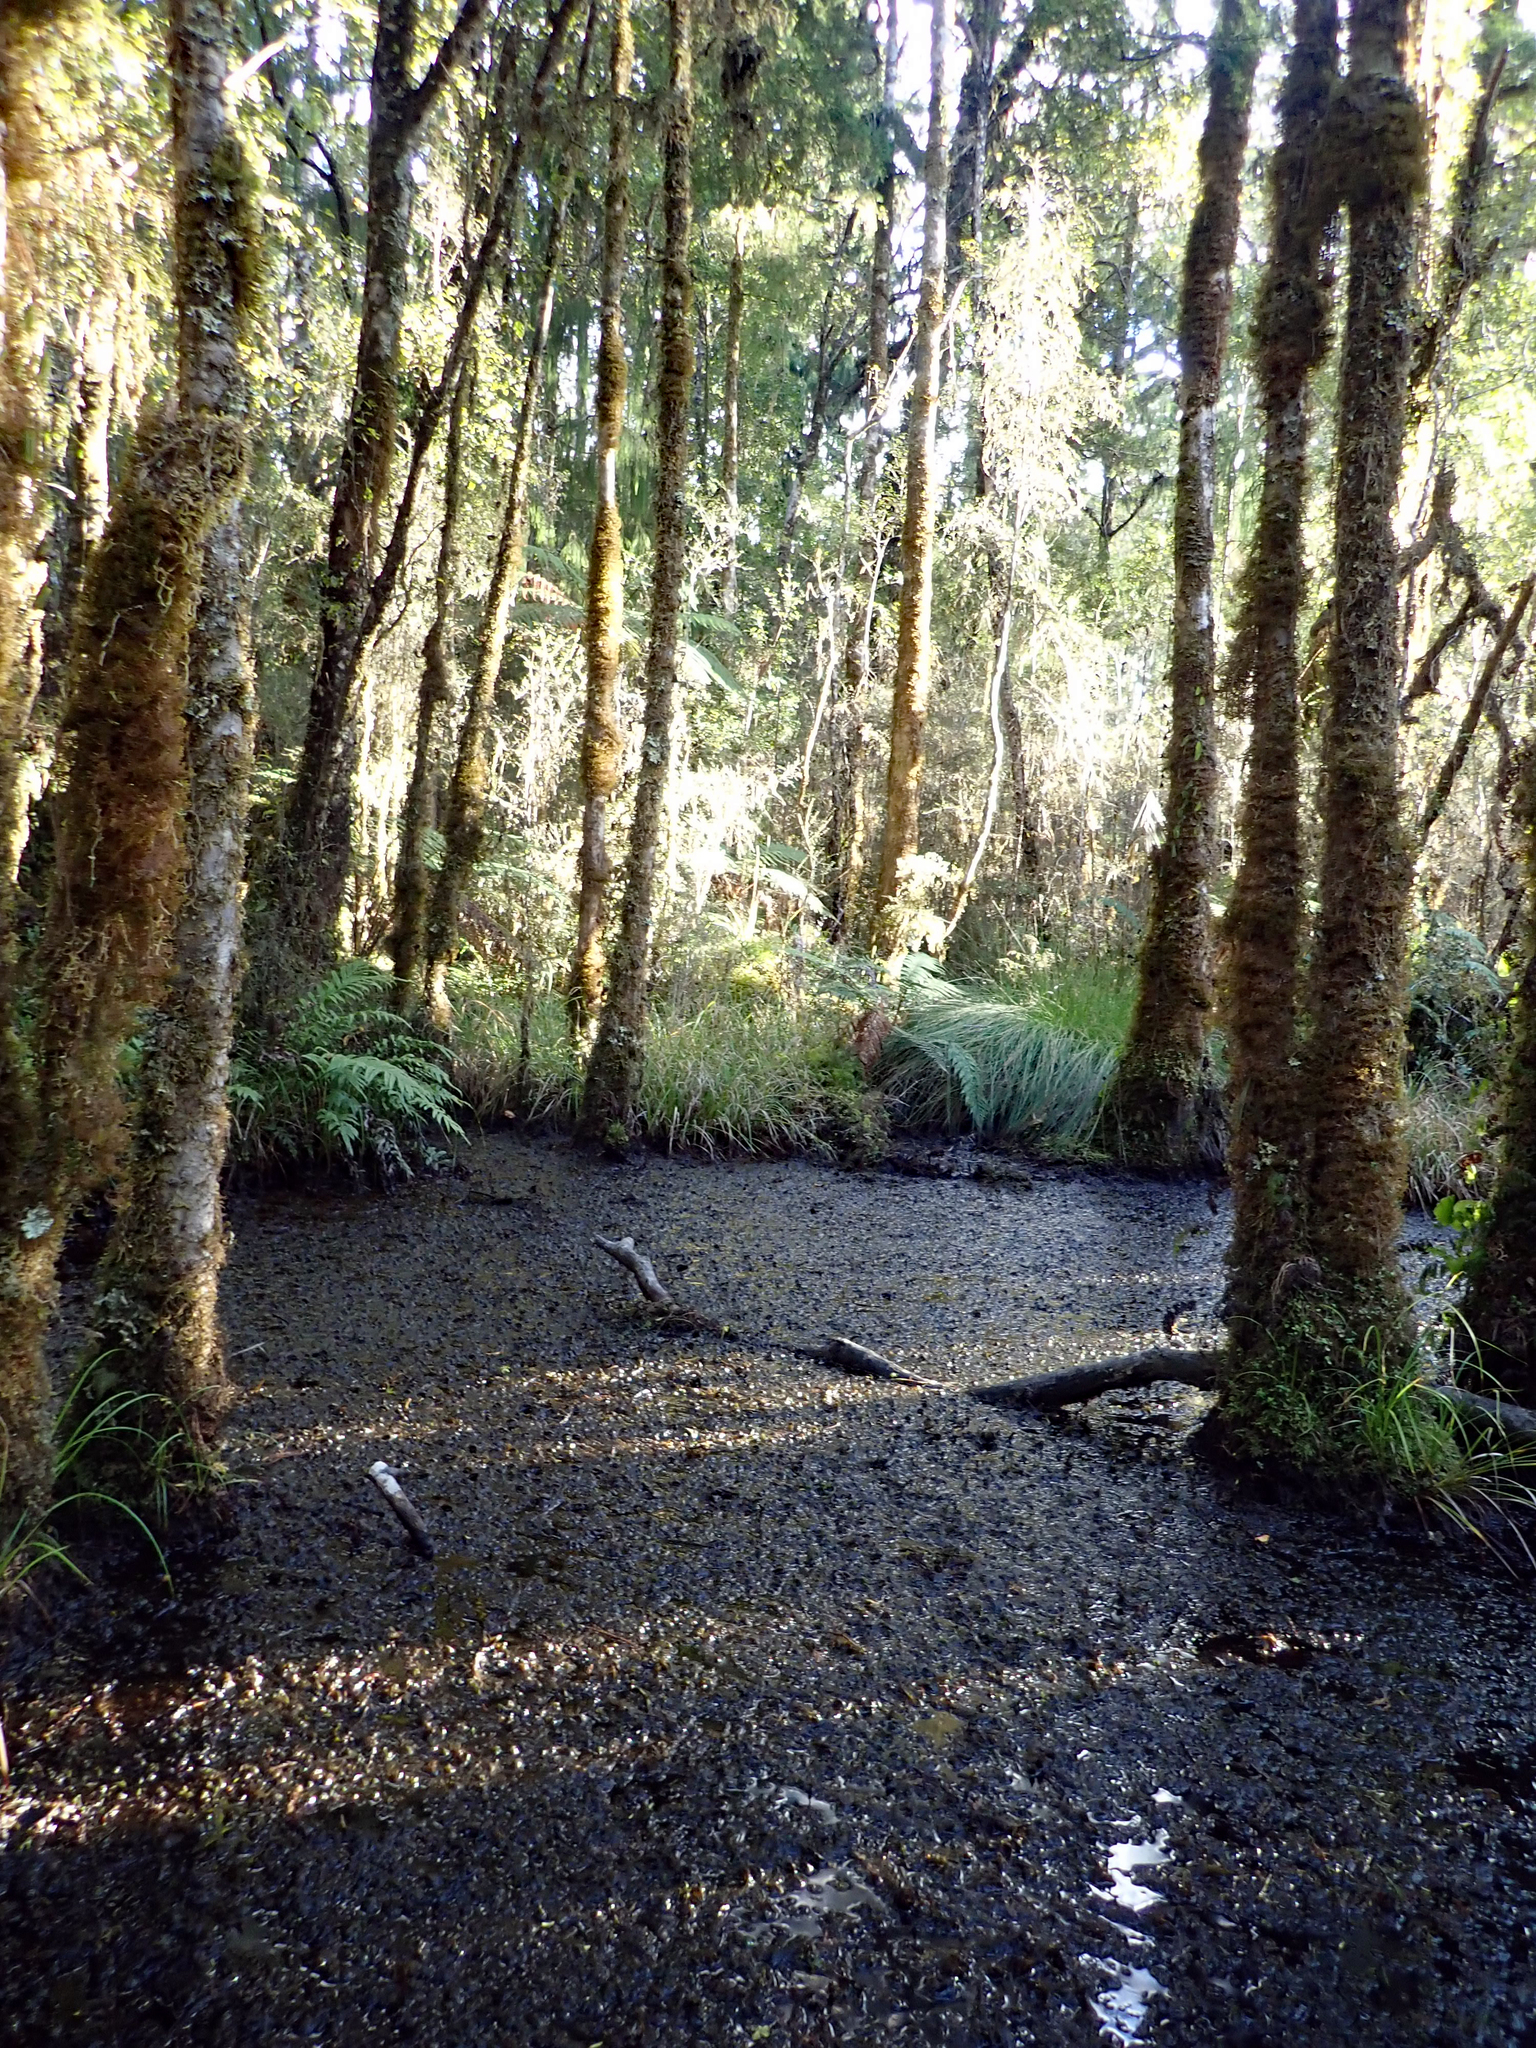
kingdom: Plantae
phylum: Tracheophyta
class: Magnoliopsida
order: Saxifragales
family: Haloragaceae
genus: Myriophyllum
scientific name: Myriophyllum robustum
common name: Stout water milfoil
